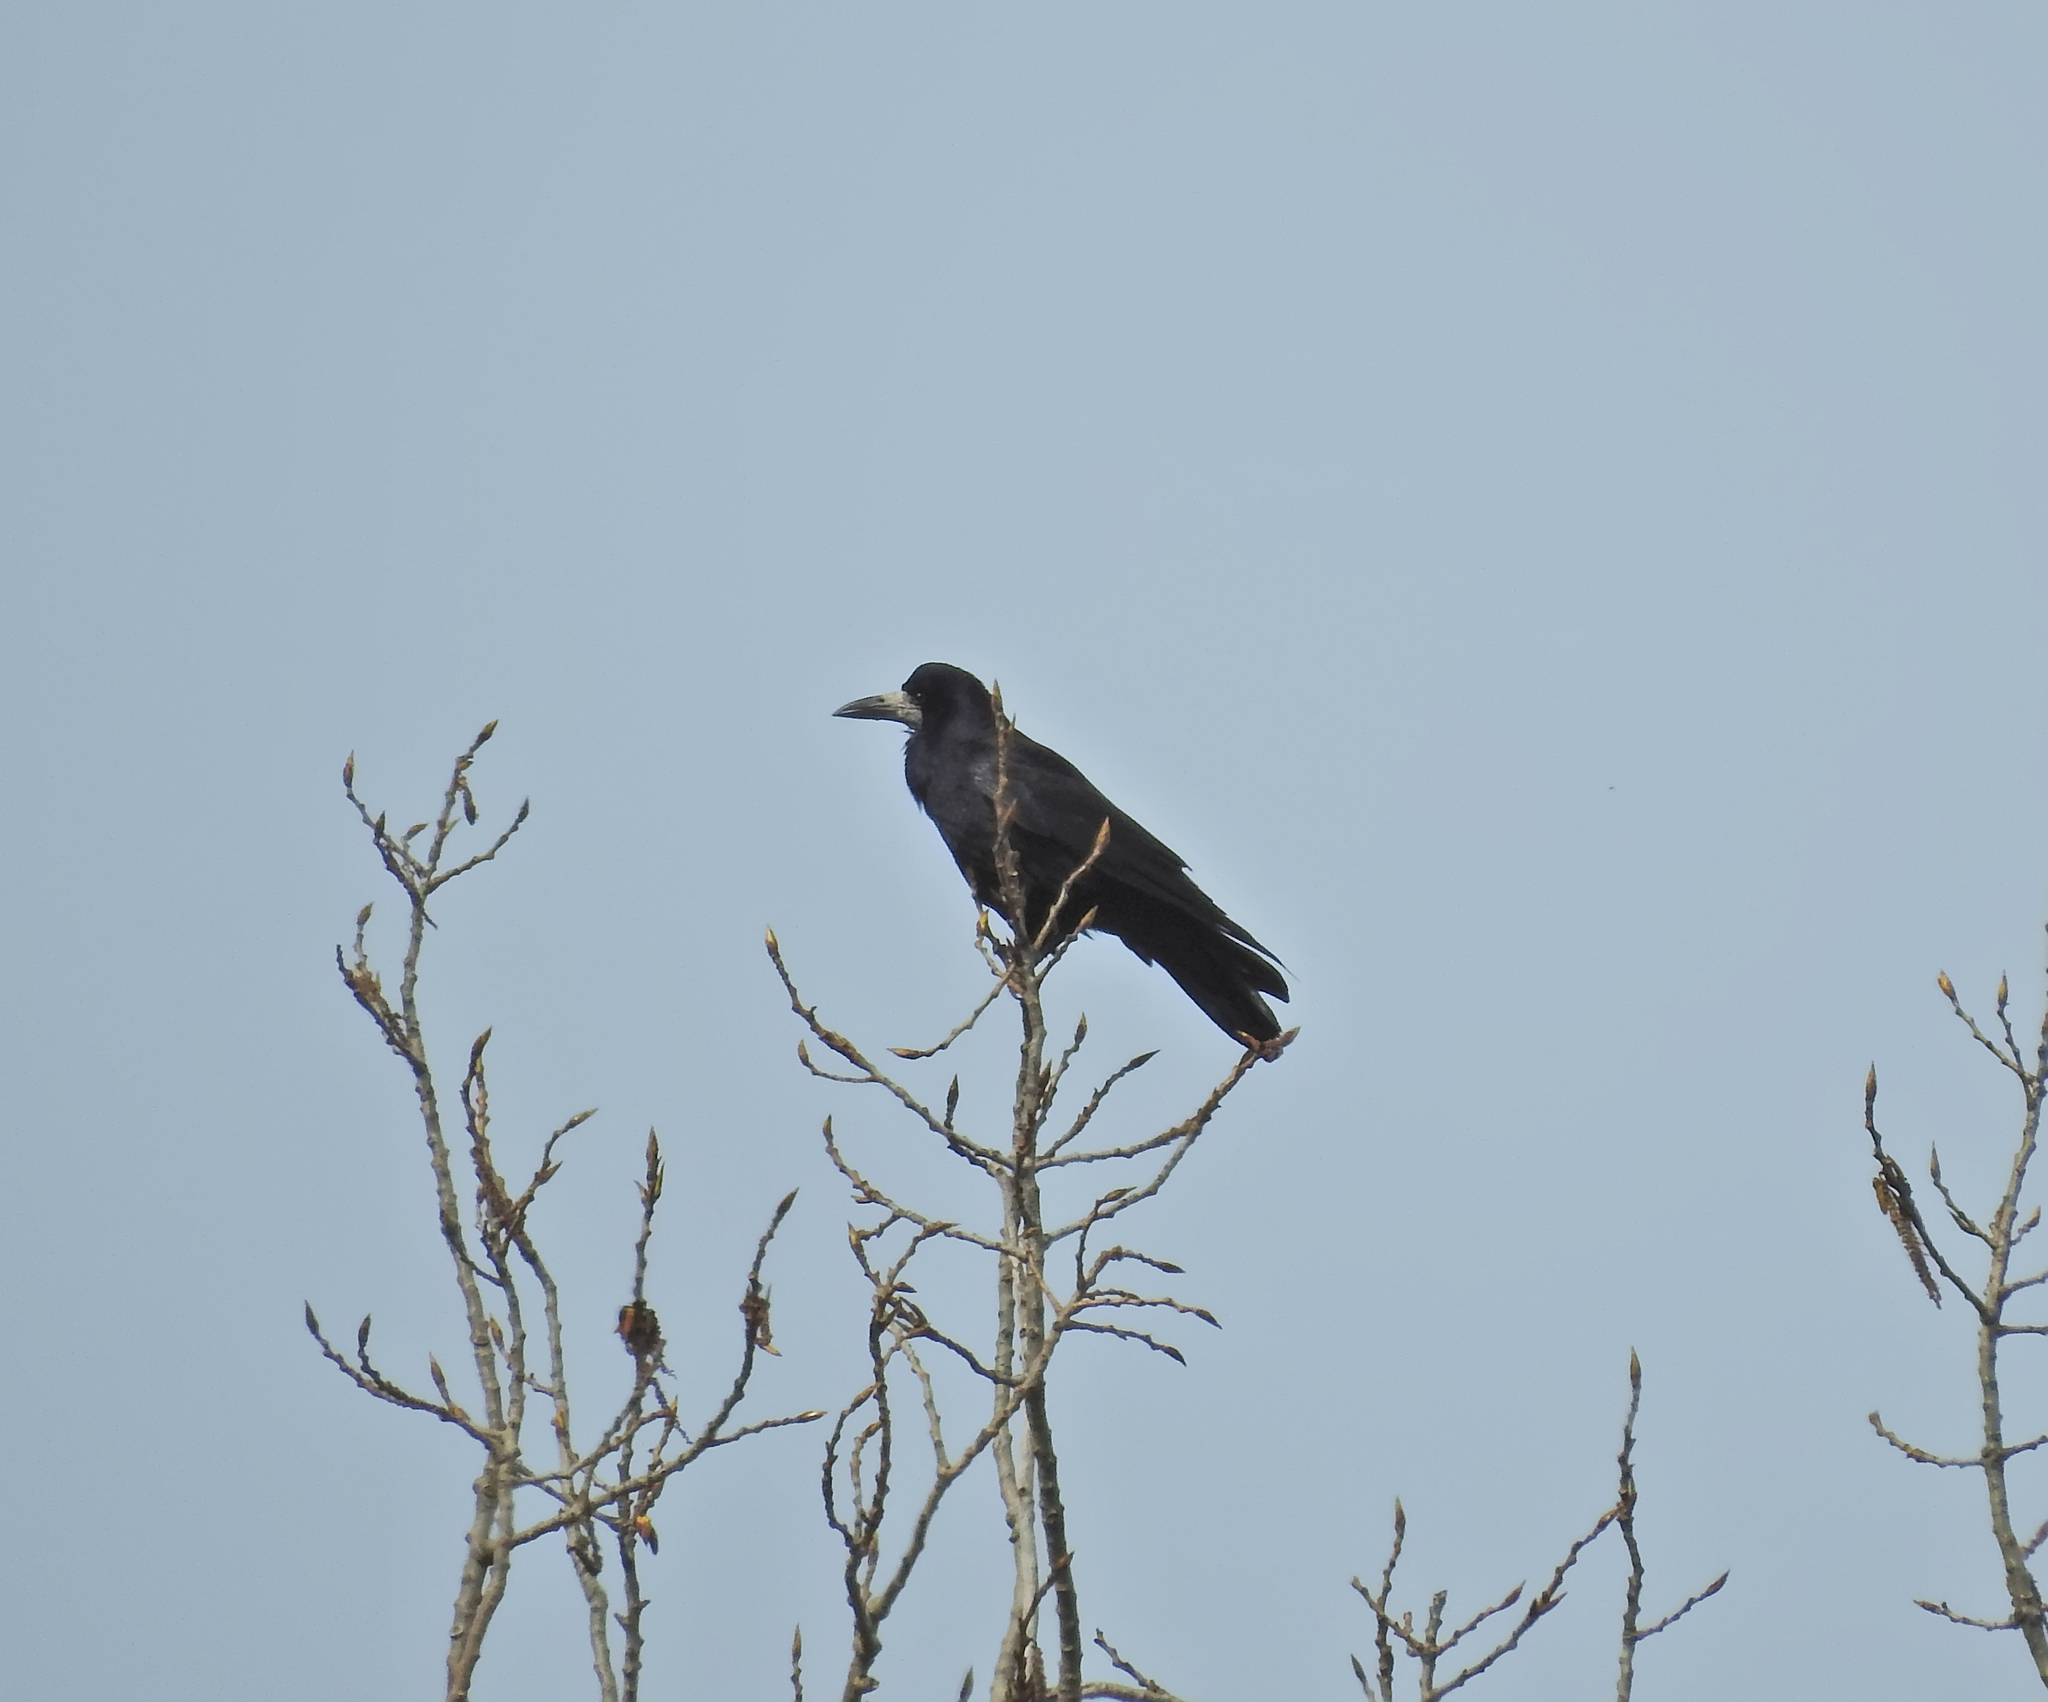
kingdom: Animalia
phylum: Chordata
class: Aves
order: Passeriformes
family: Corvidae
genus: Corvus
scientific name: Corvus frugilegus
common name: Rook
